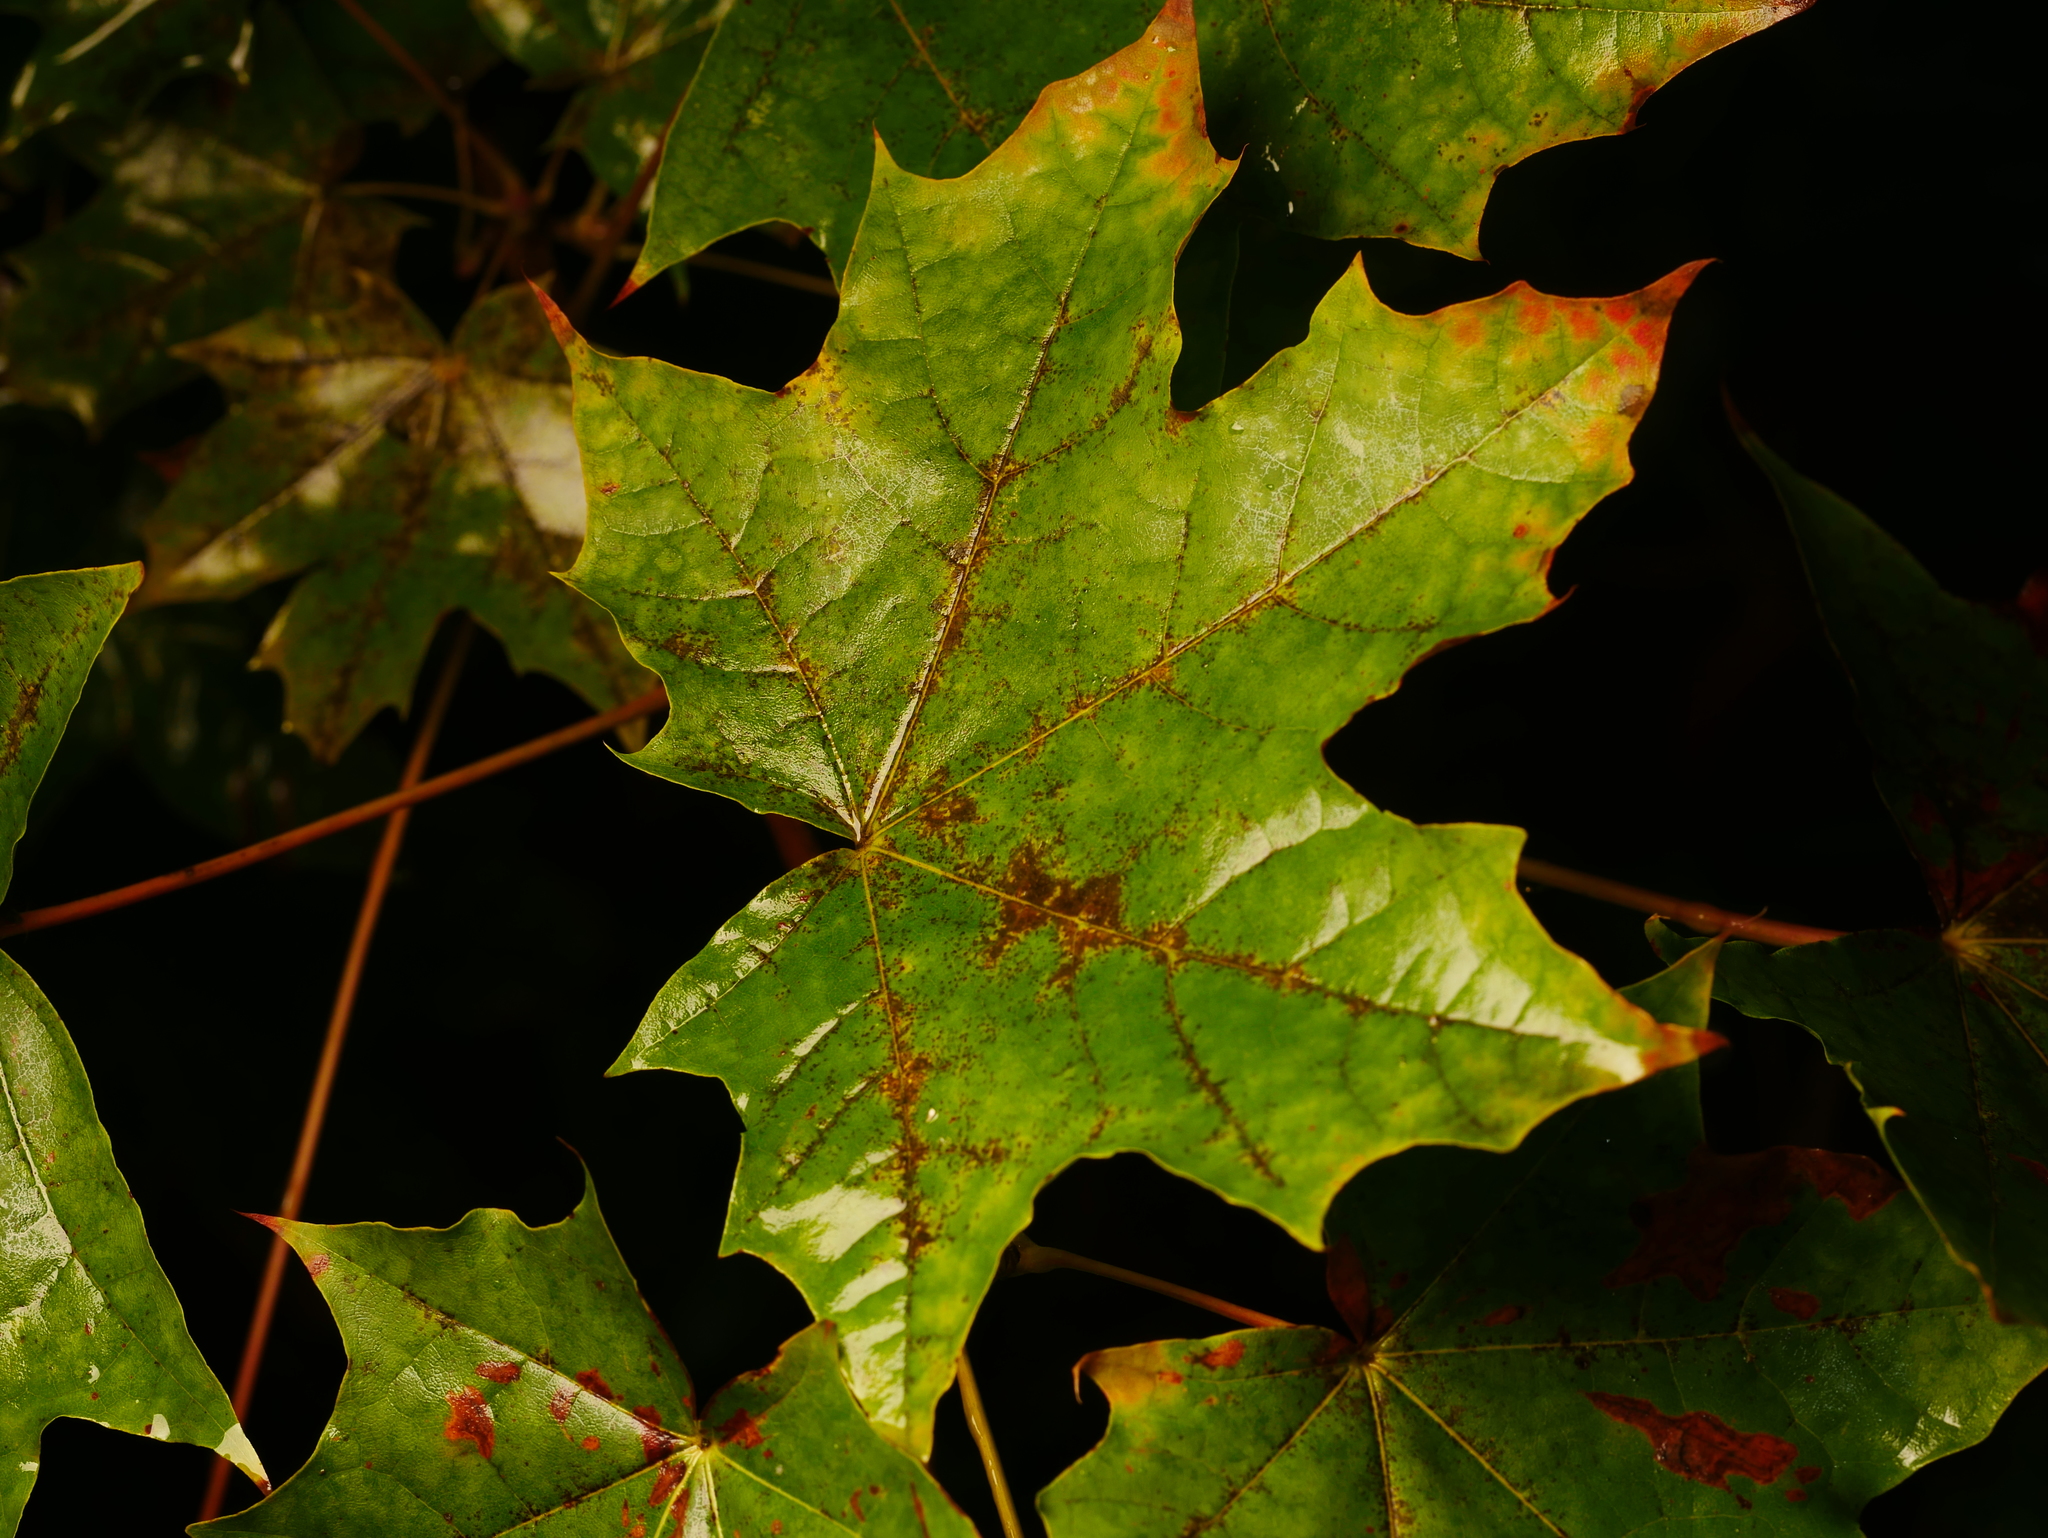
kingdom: Plantae
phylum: Tracheophyta
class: Magnoliopsida
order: Sapindales
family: Sapindaceae
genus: Acer
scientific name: Acer platanoides
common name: Norway maple
